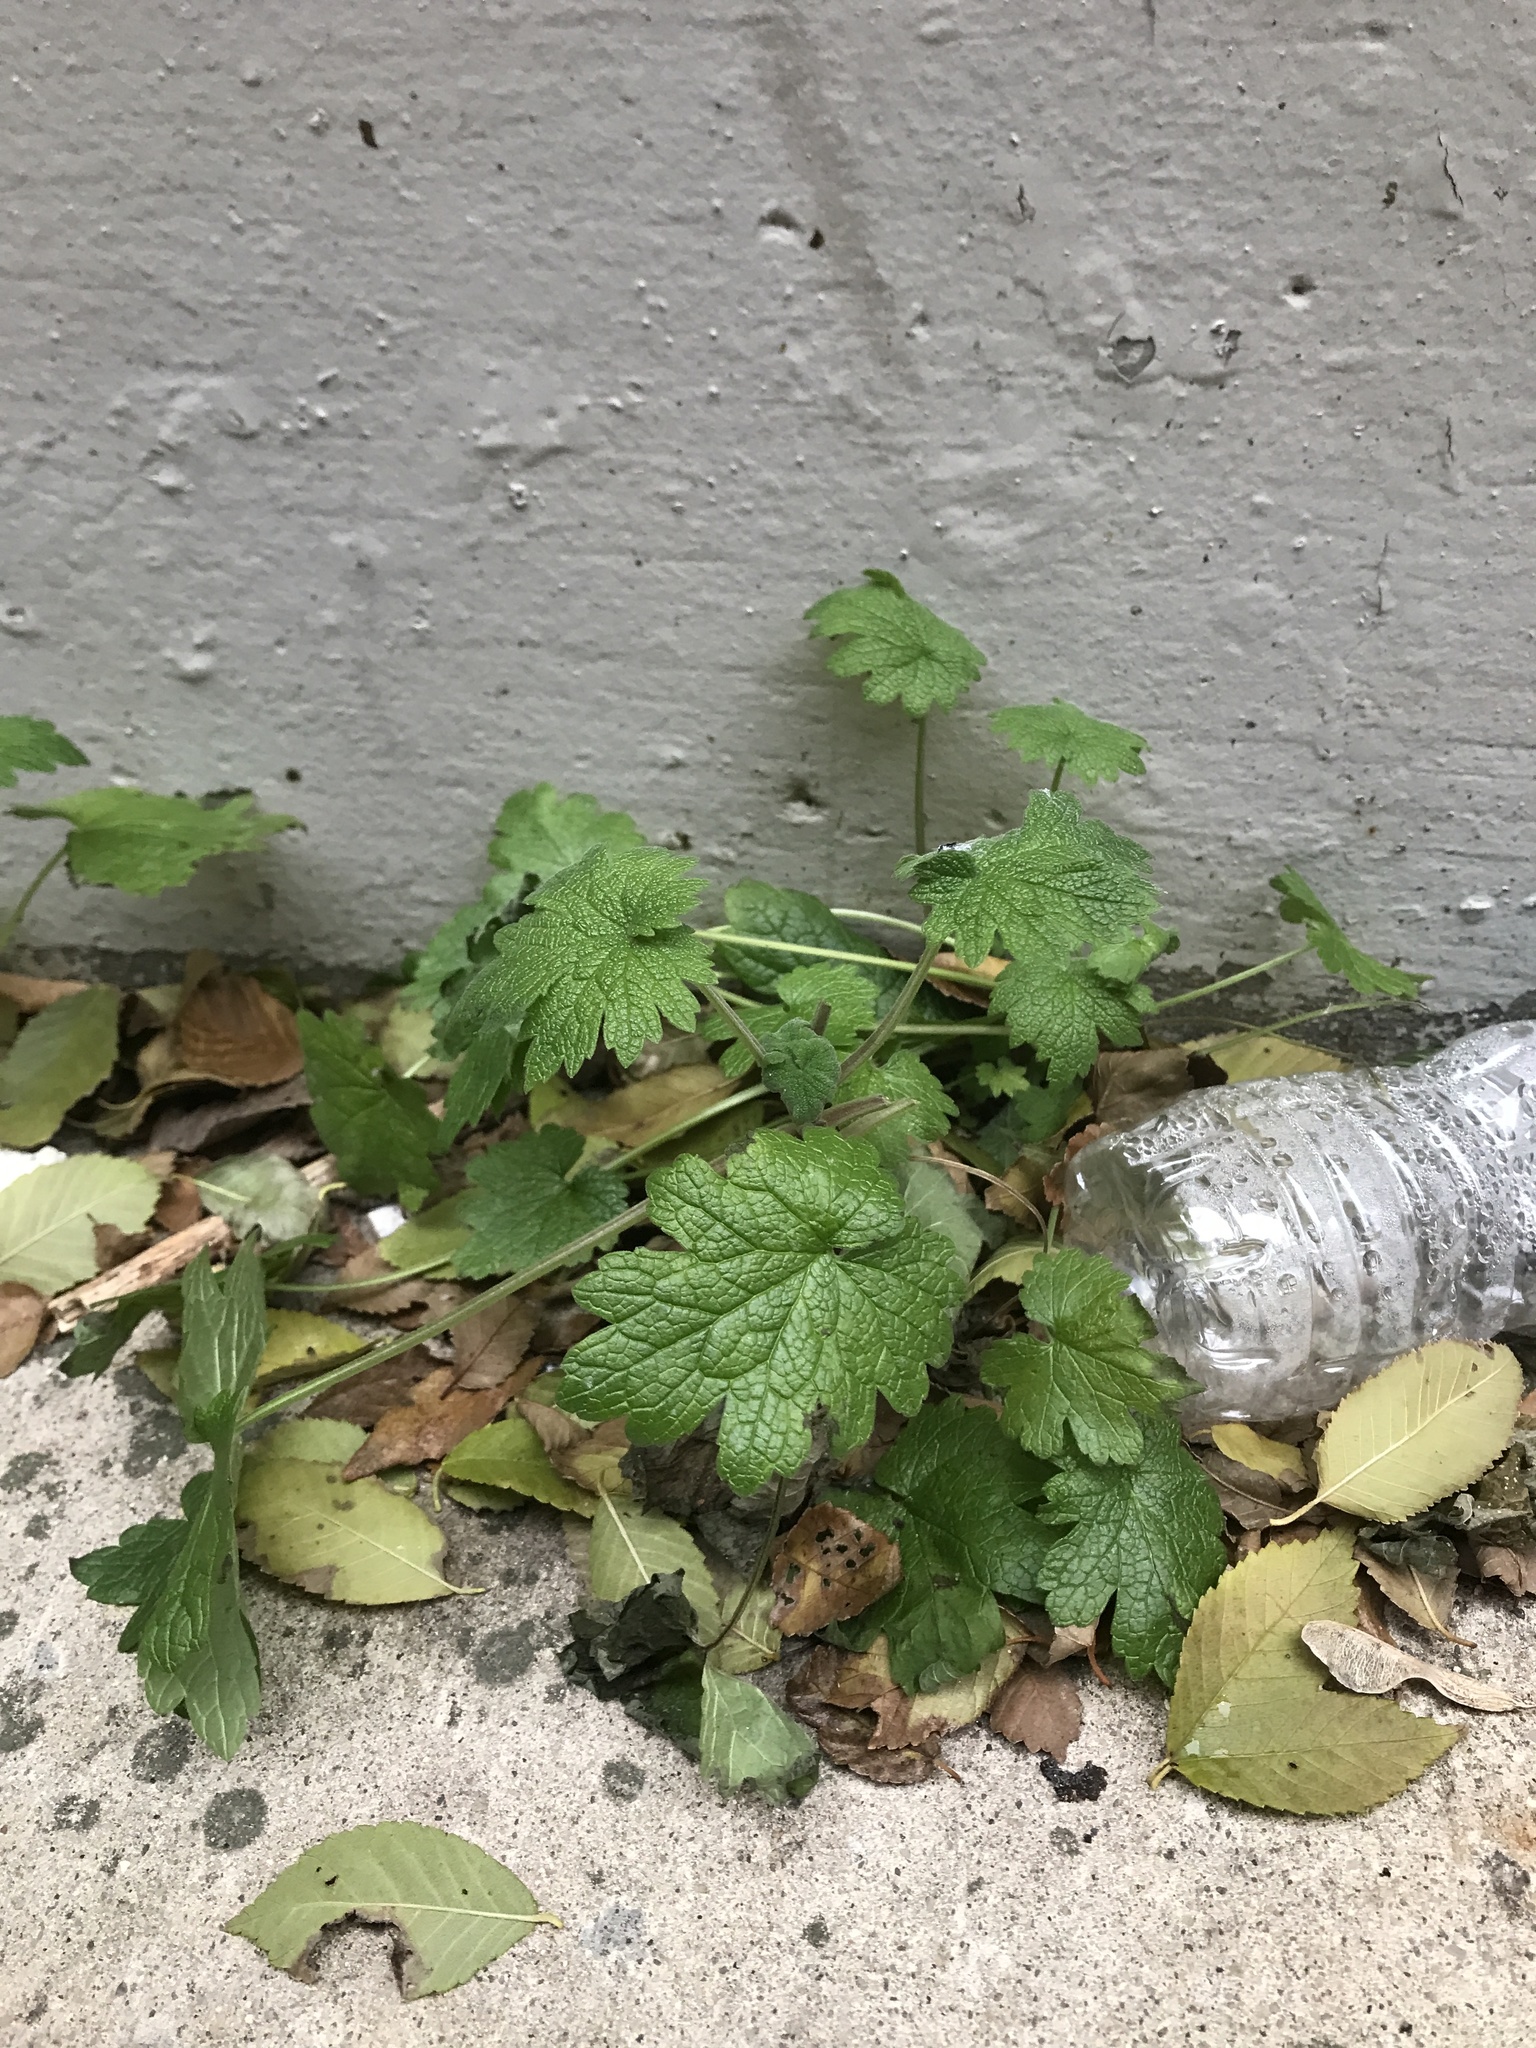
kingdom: Plantae
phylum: Tracheophyta
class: Magnoliopsida
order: Lamiales
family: Lamiaceae
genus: Leonurus
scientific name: Leonurus cardiaca
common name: Motherwort
